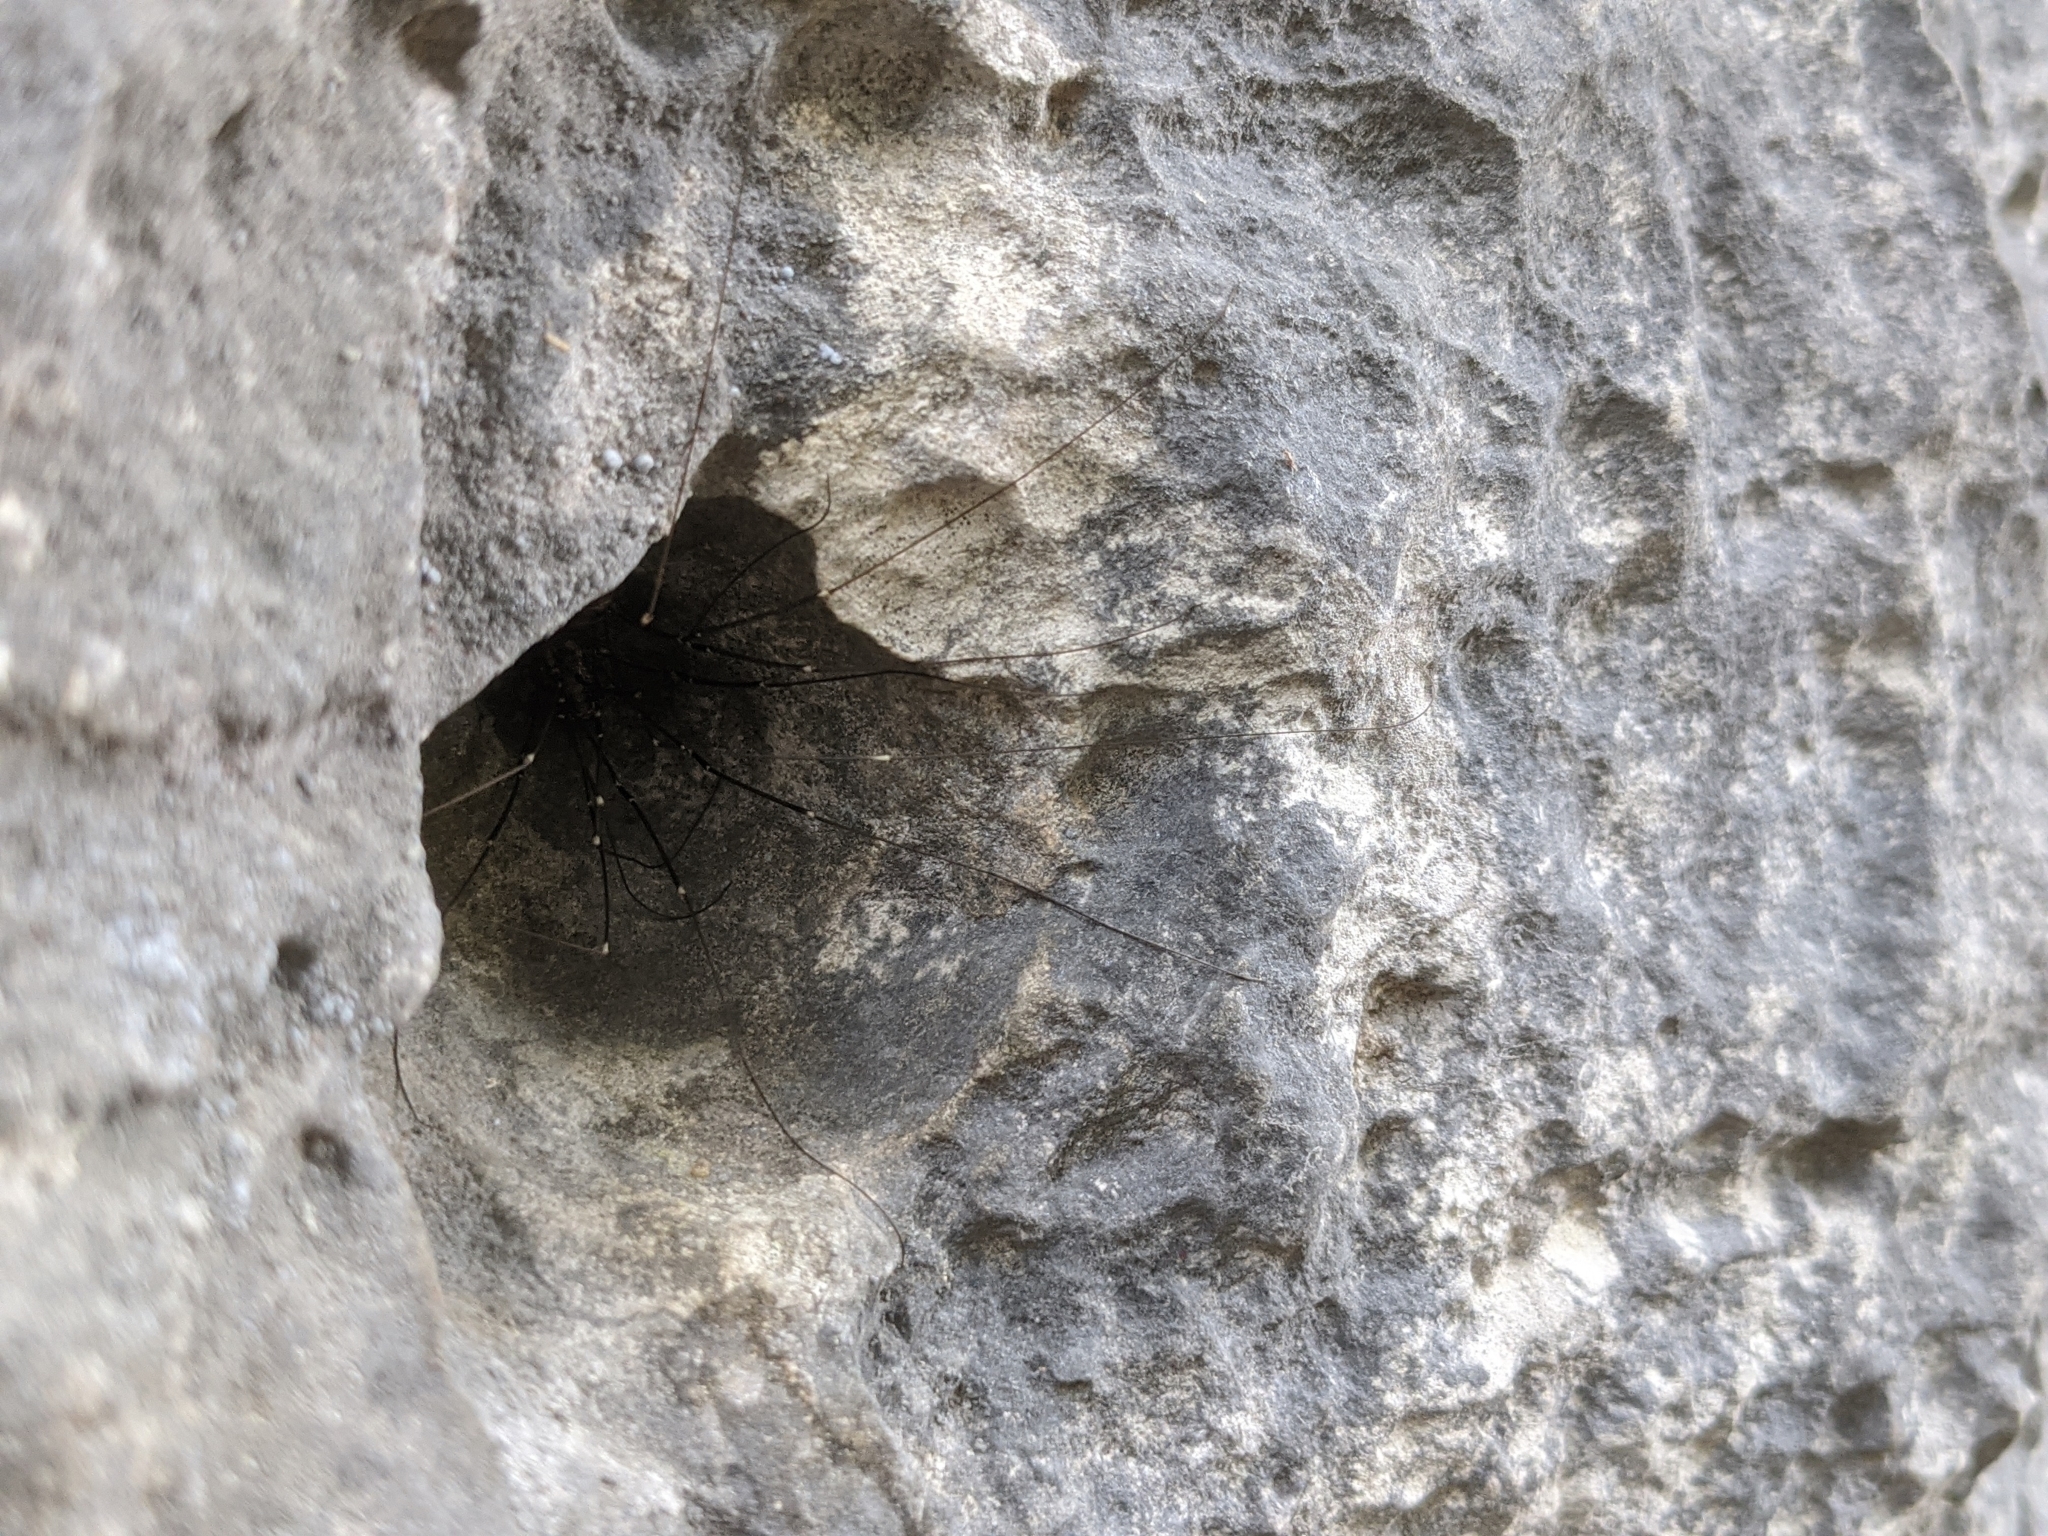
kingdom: Animalia
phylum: Arthropoda
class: Arachnida
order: Opiliones
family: Sclerosomatidae
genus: Leiobunum
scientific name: Leiobunum limbatum
